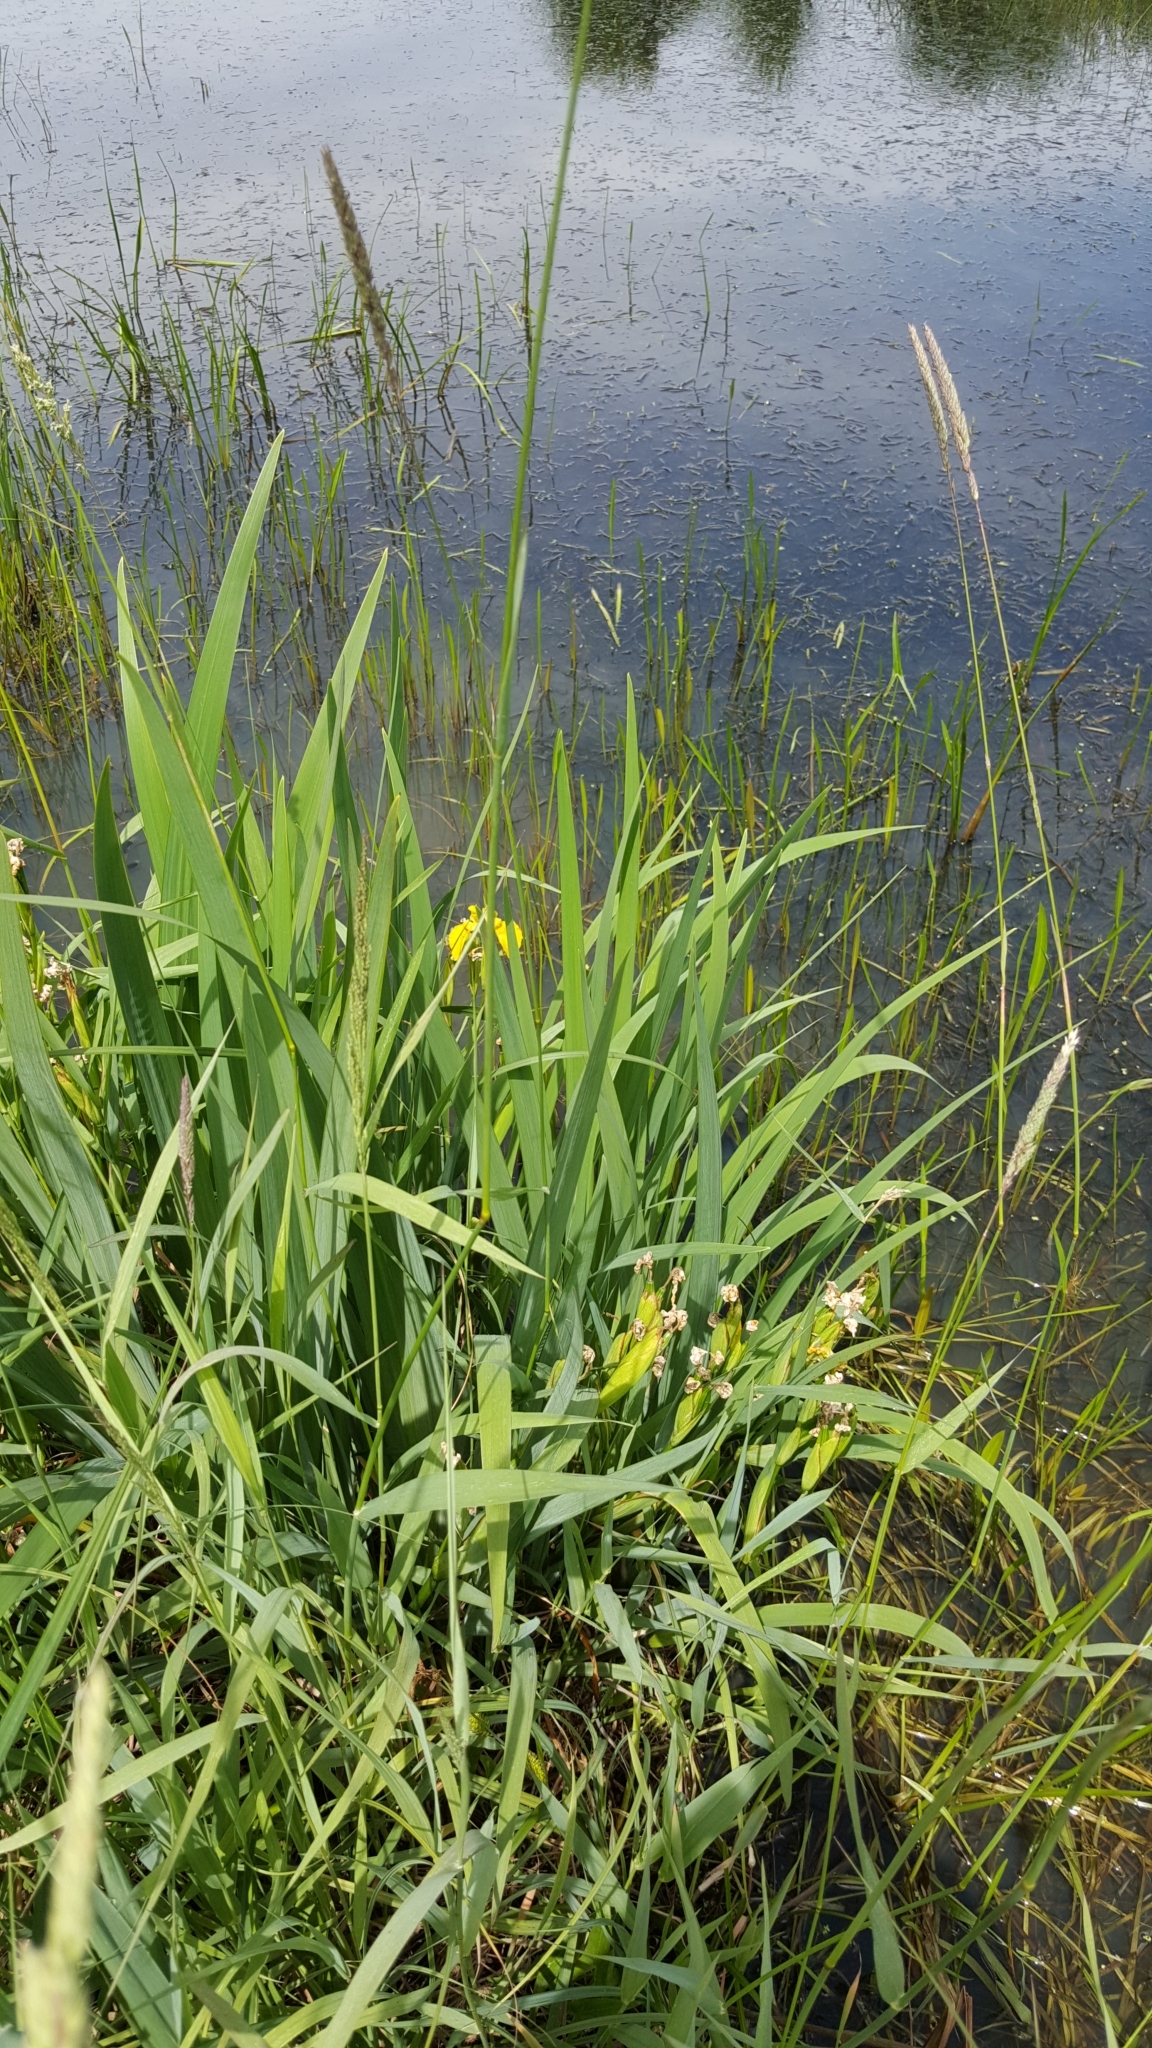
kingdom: Plantae
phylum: Tracheophyta
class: Liliopsida
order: Asparagales
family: Iridaceae
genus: Iris
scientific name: Iris pseudacorus
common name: Yellow flag
